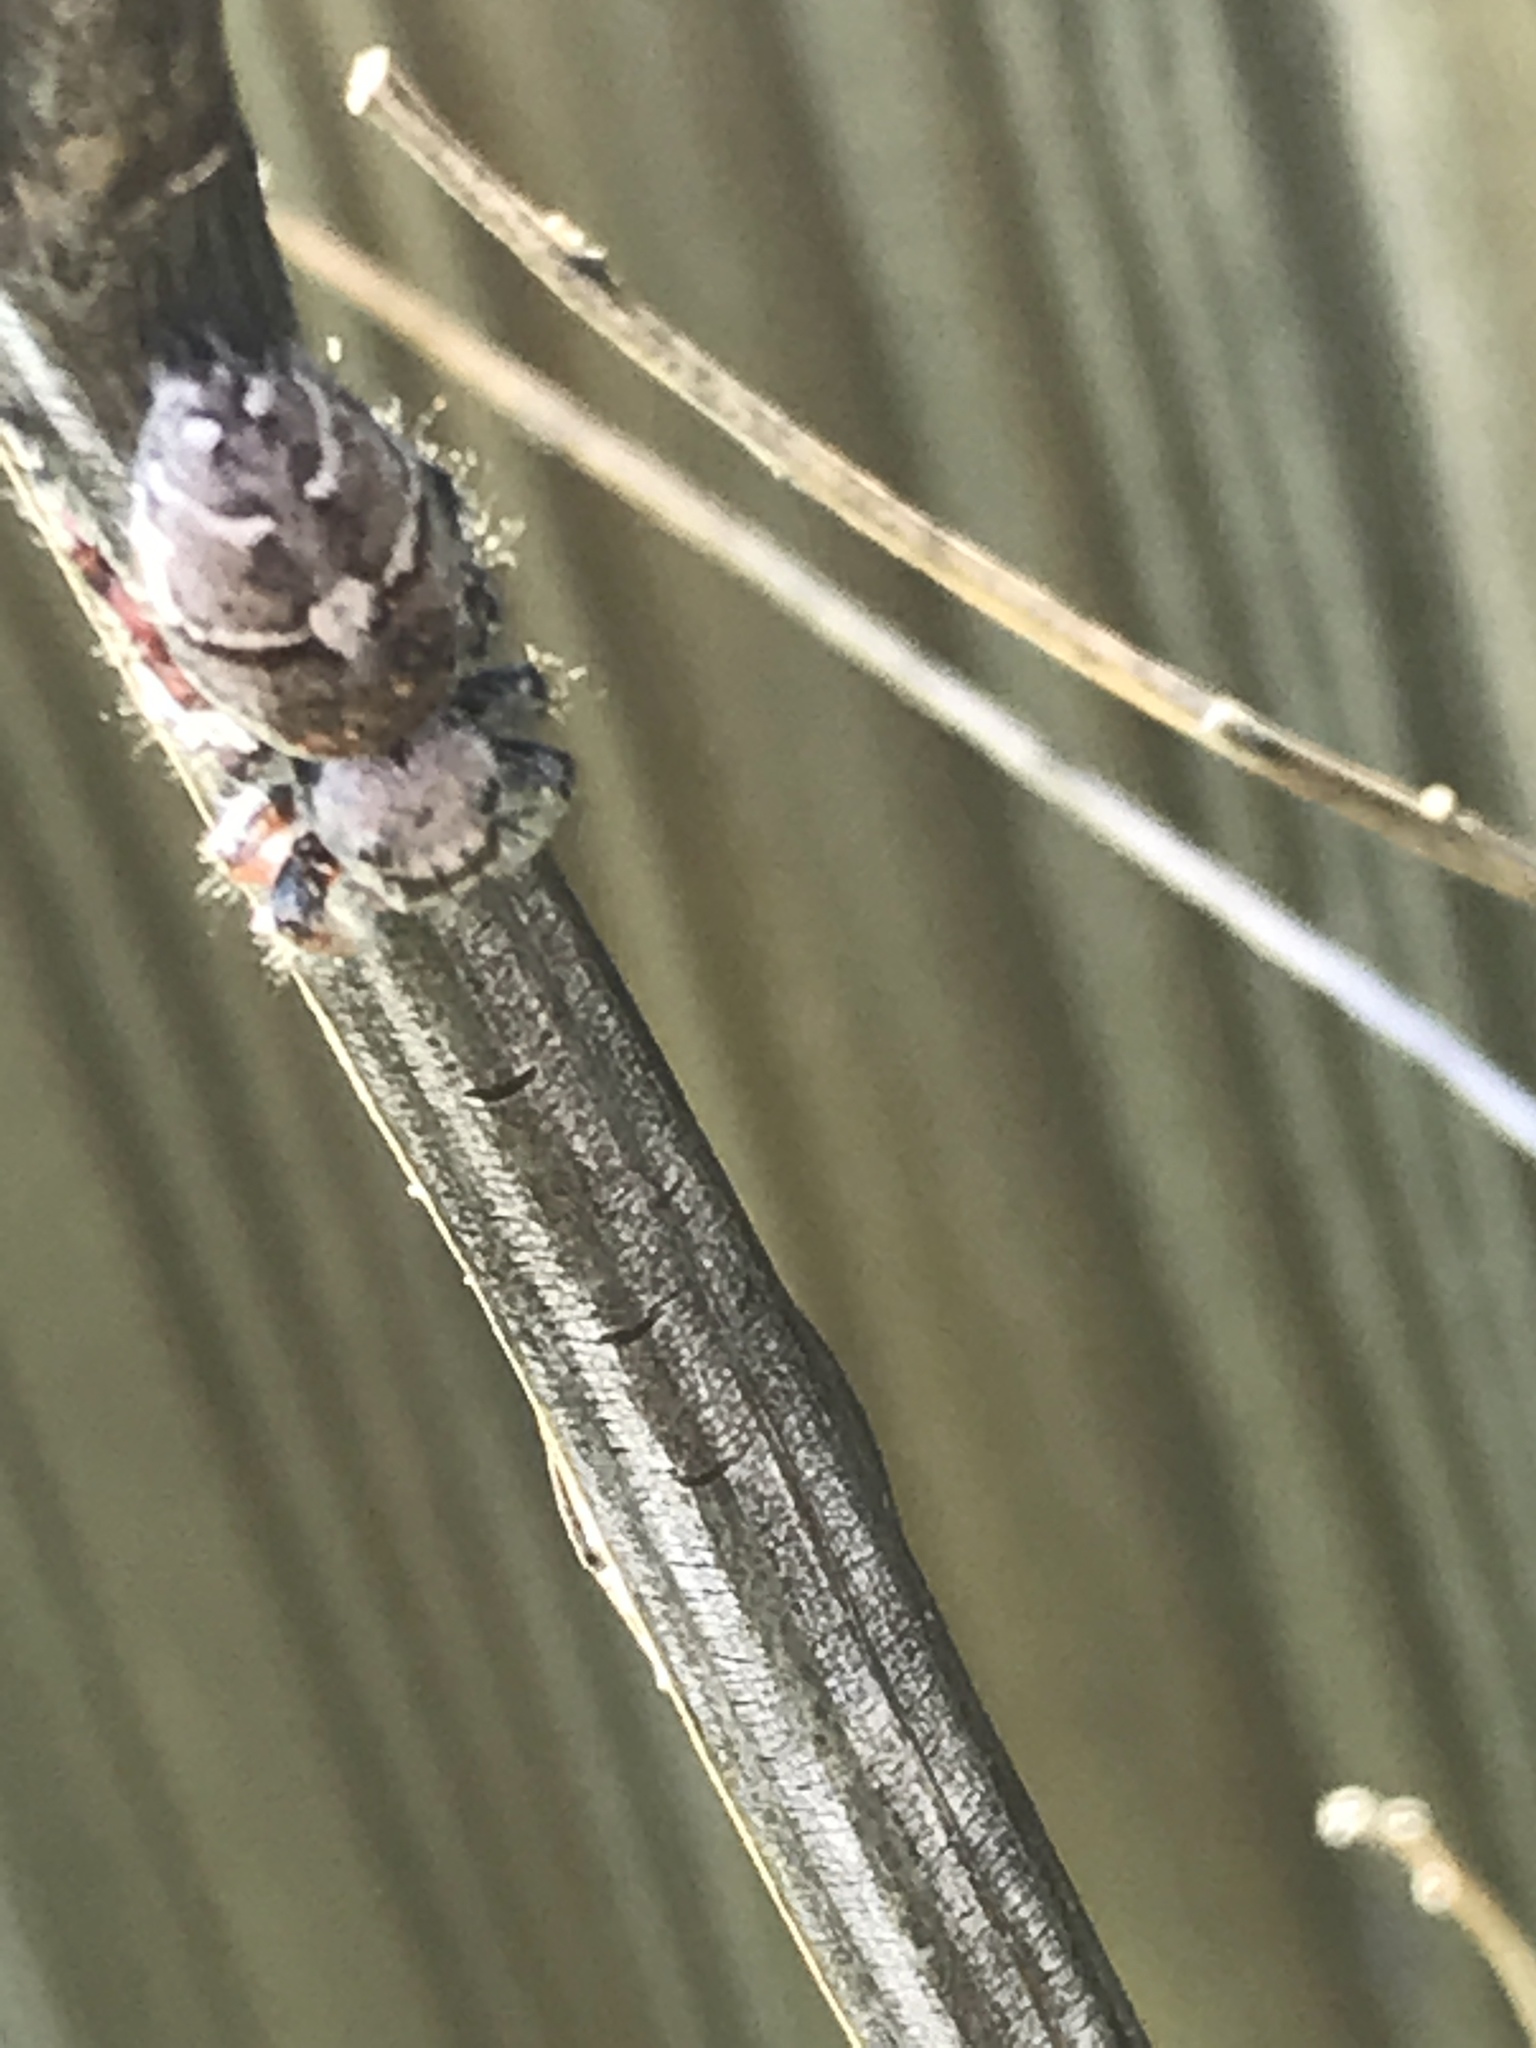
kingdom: Animalia
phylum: Arthropoda
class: Arachnida
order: Araneae
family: Salticidae
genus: Phidippus
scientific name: Phidippus carolinensis
